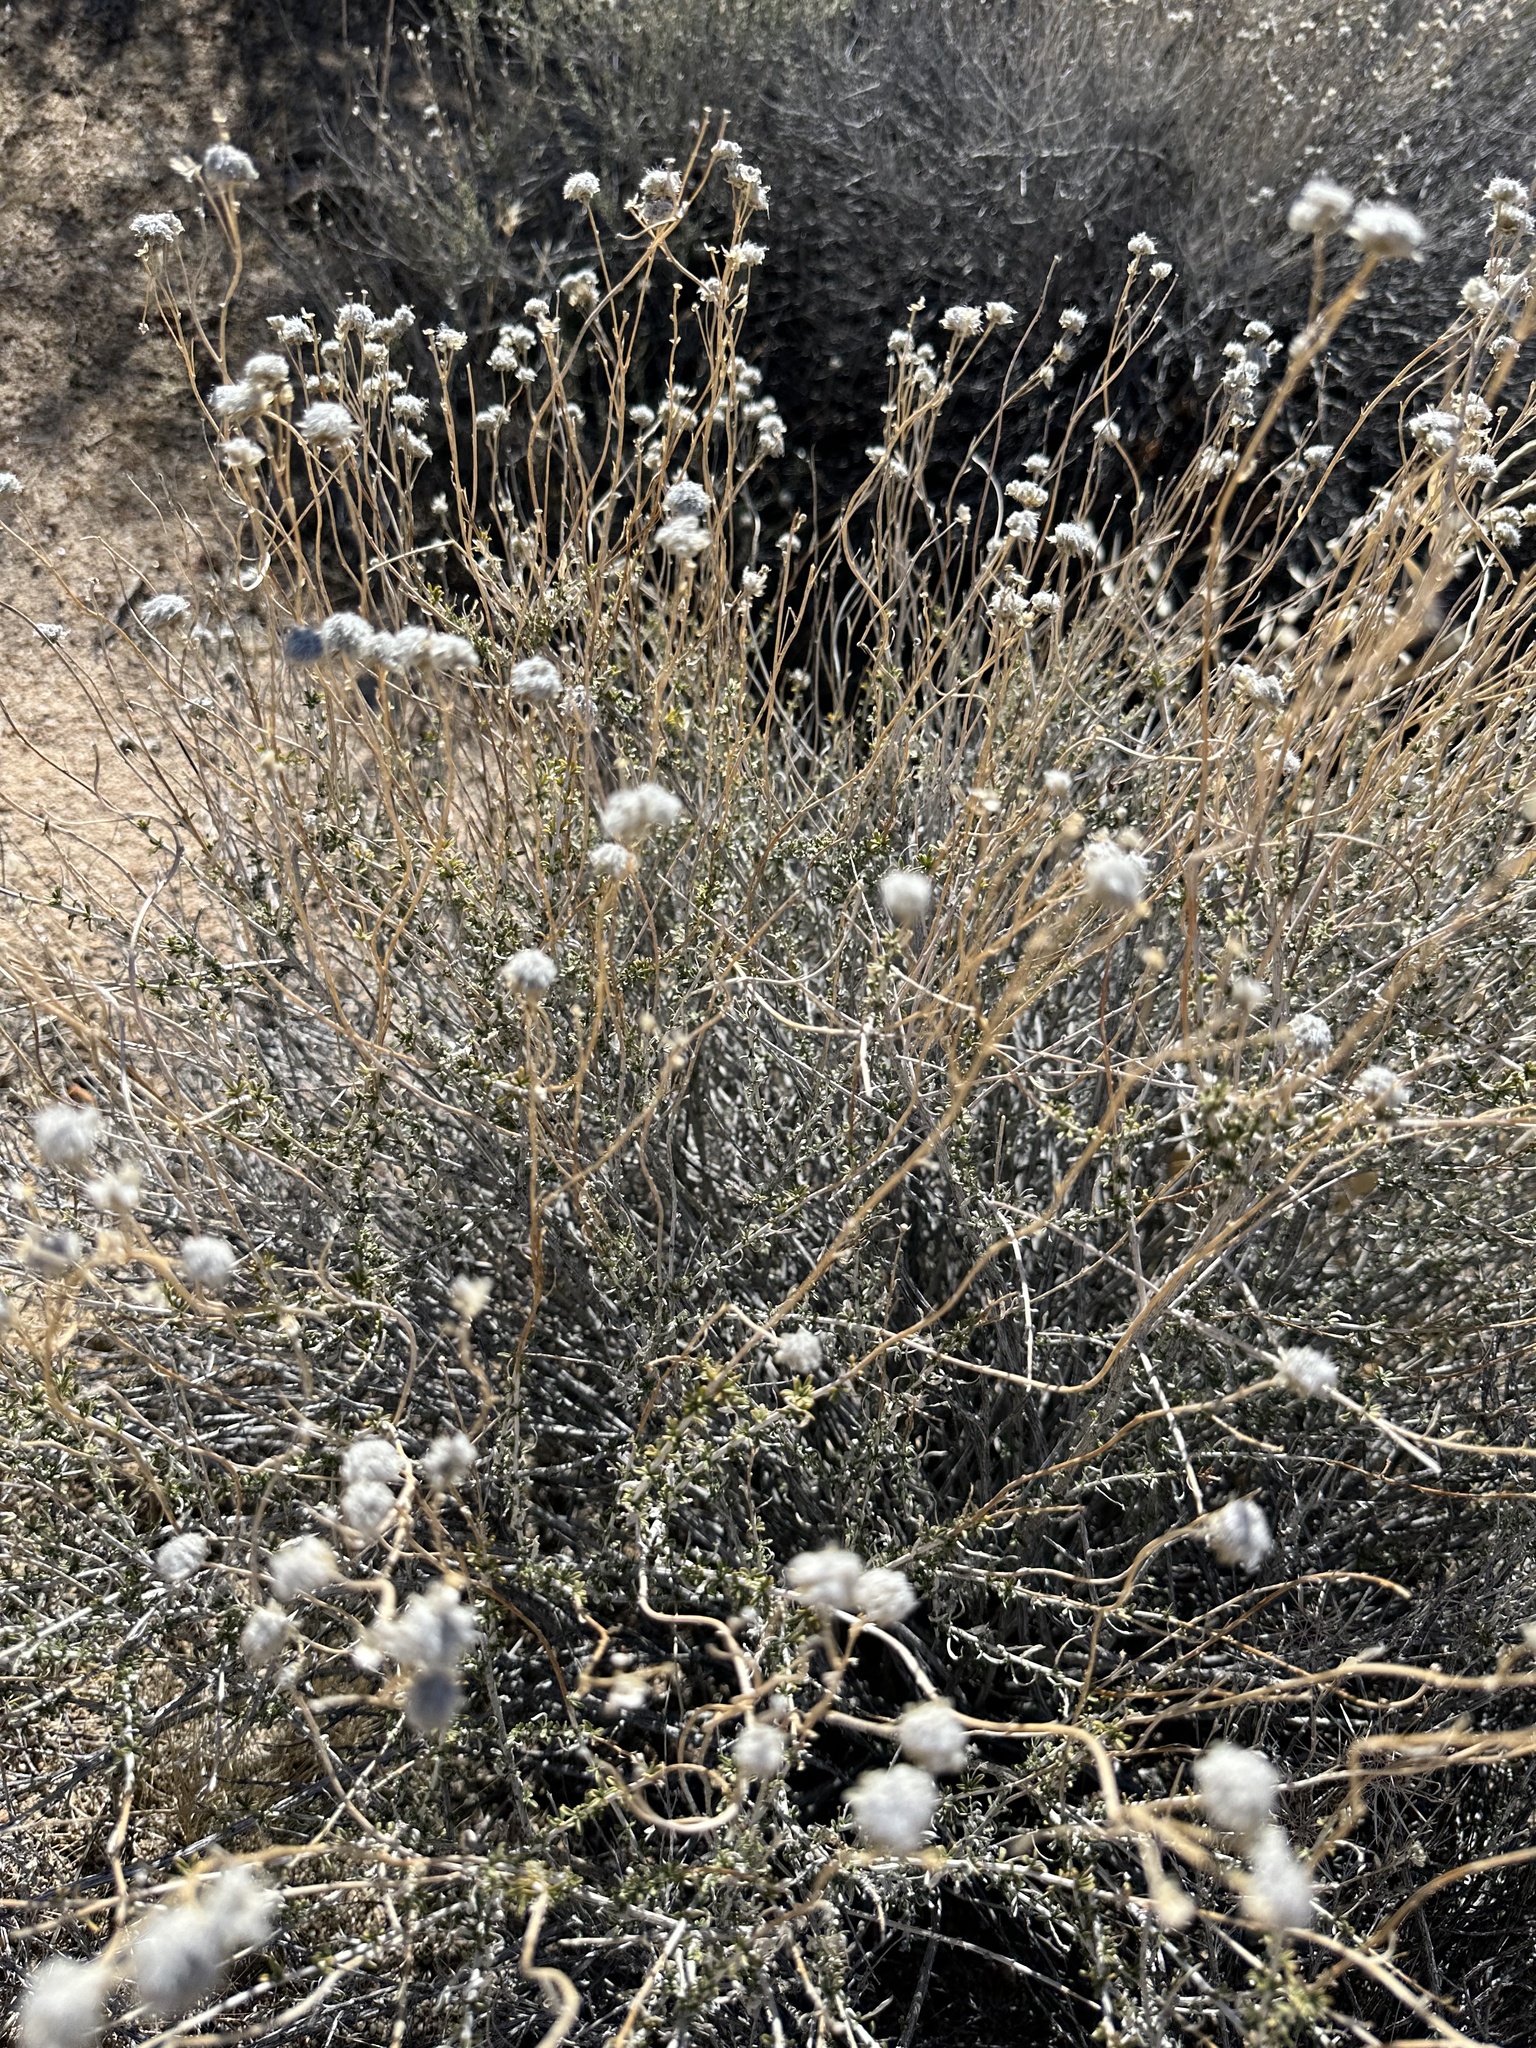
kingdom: Plantae
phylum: Tracheophyta
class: Magnoliopsida
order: Asterales
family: Asteraceae
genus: Acamptopappus
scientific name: Acamptopappus sphaerocephalus
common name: Goldenhead
